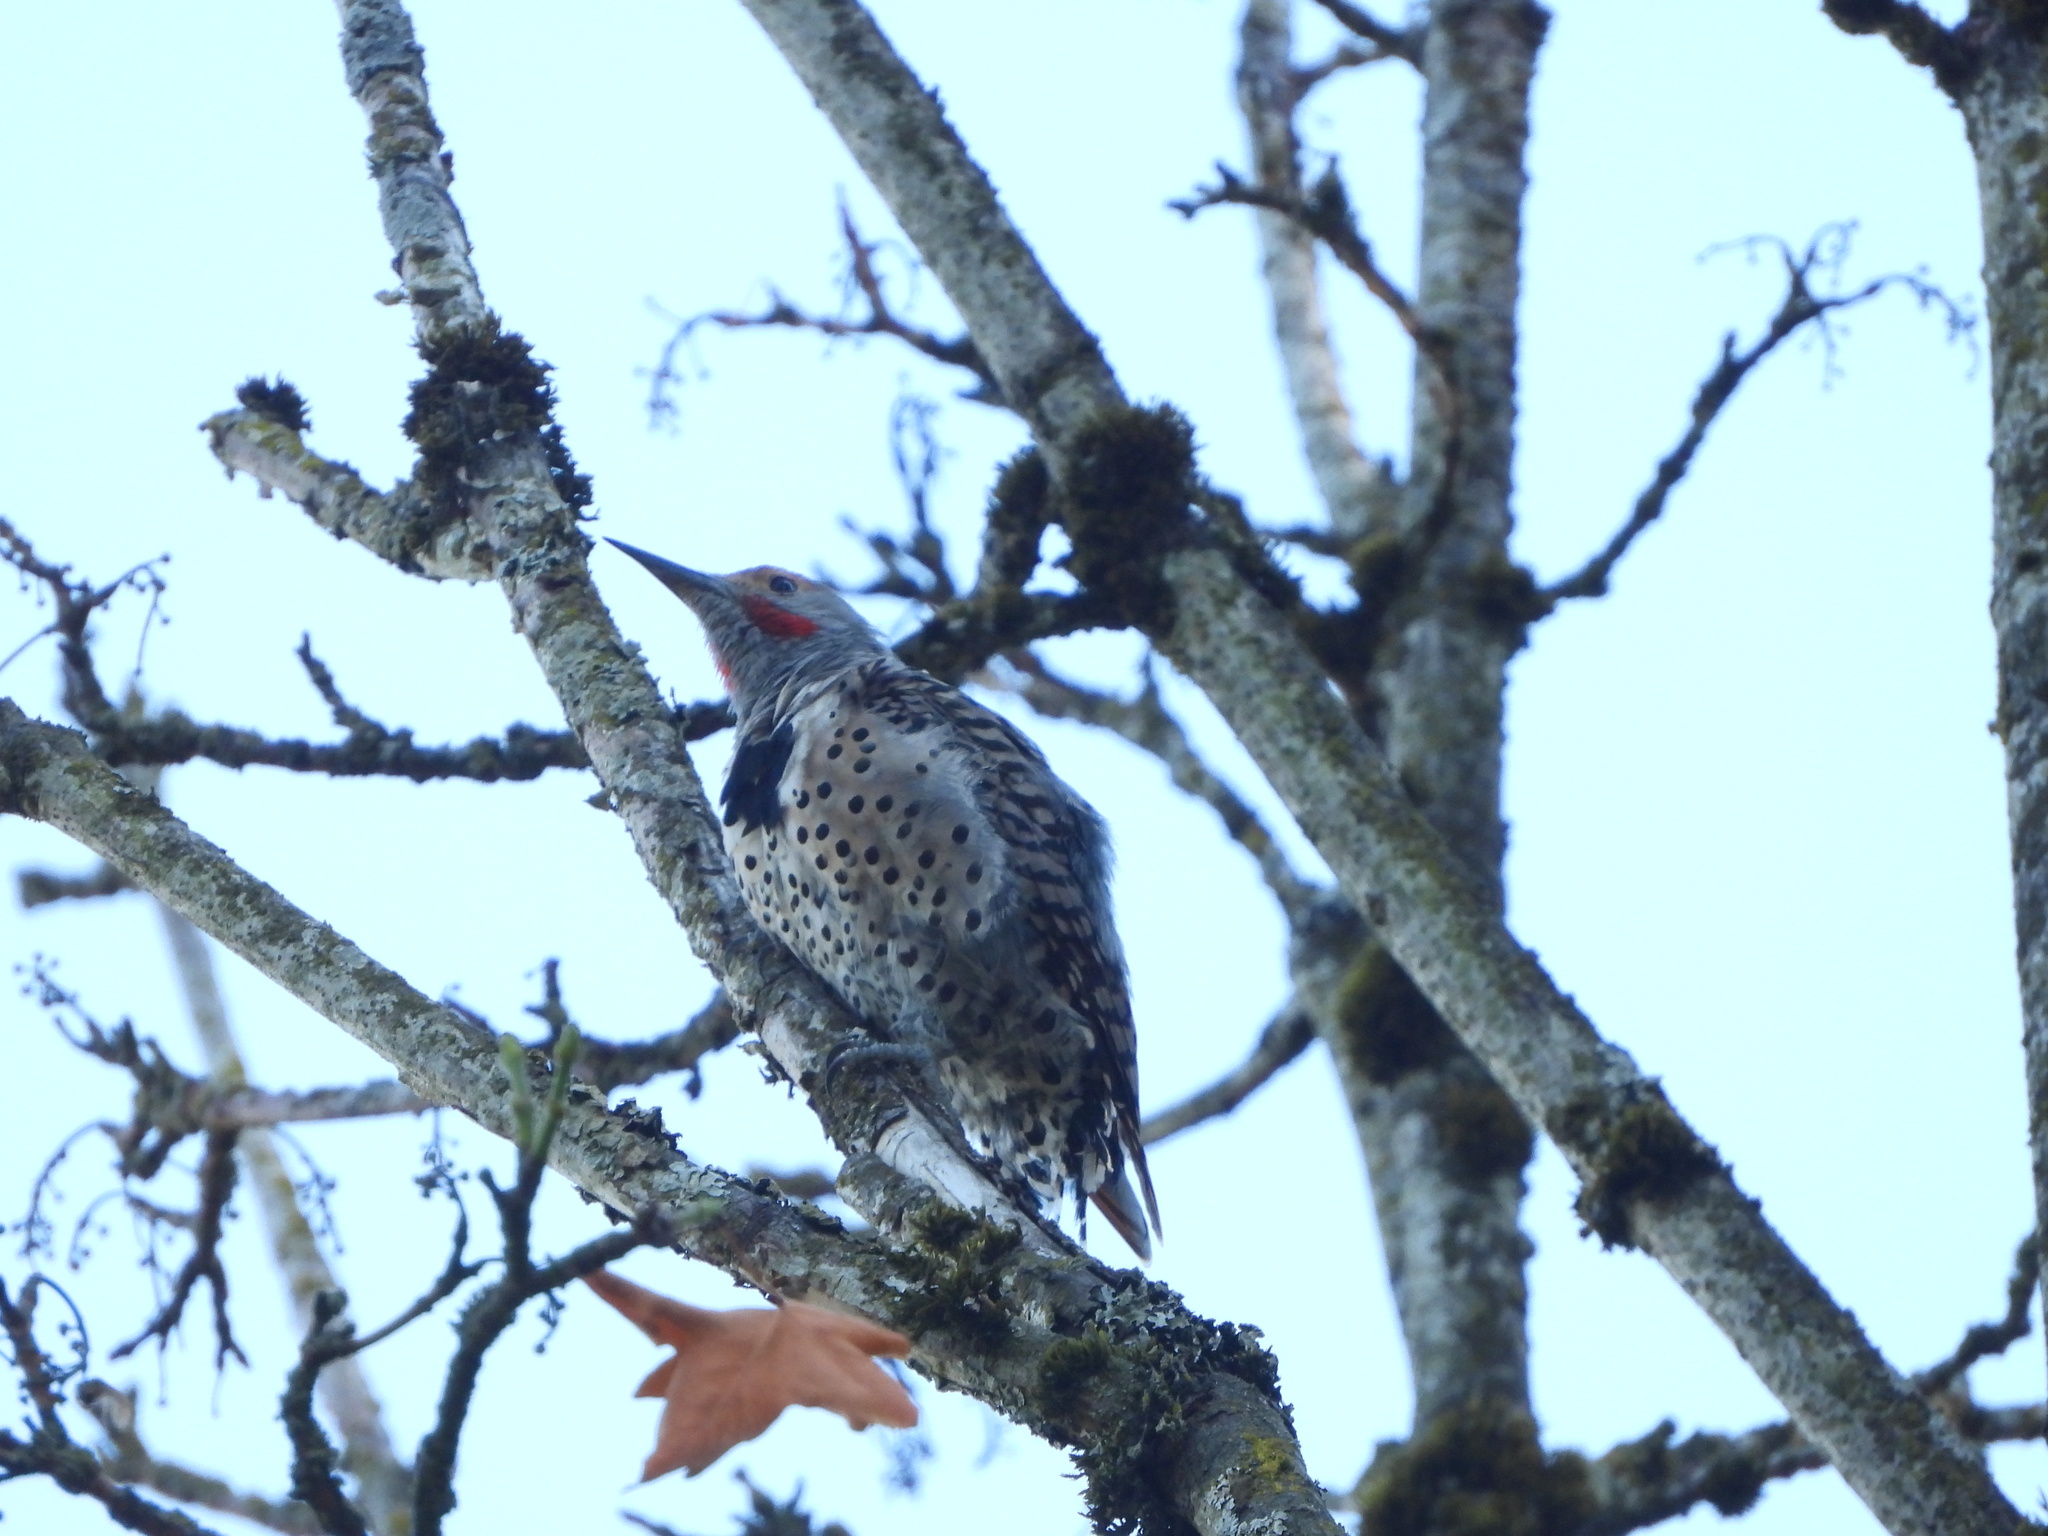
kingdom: Animalia
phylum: Chordata
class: Aves
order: Piciformes
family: Picidae
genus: Colaptes
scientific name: Colaptes auratus
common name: Northern flicker
